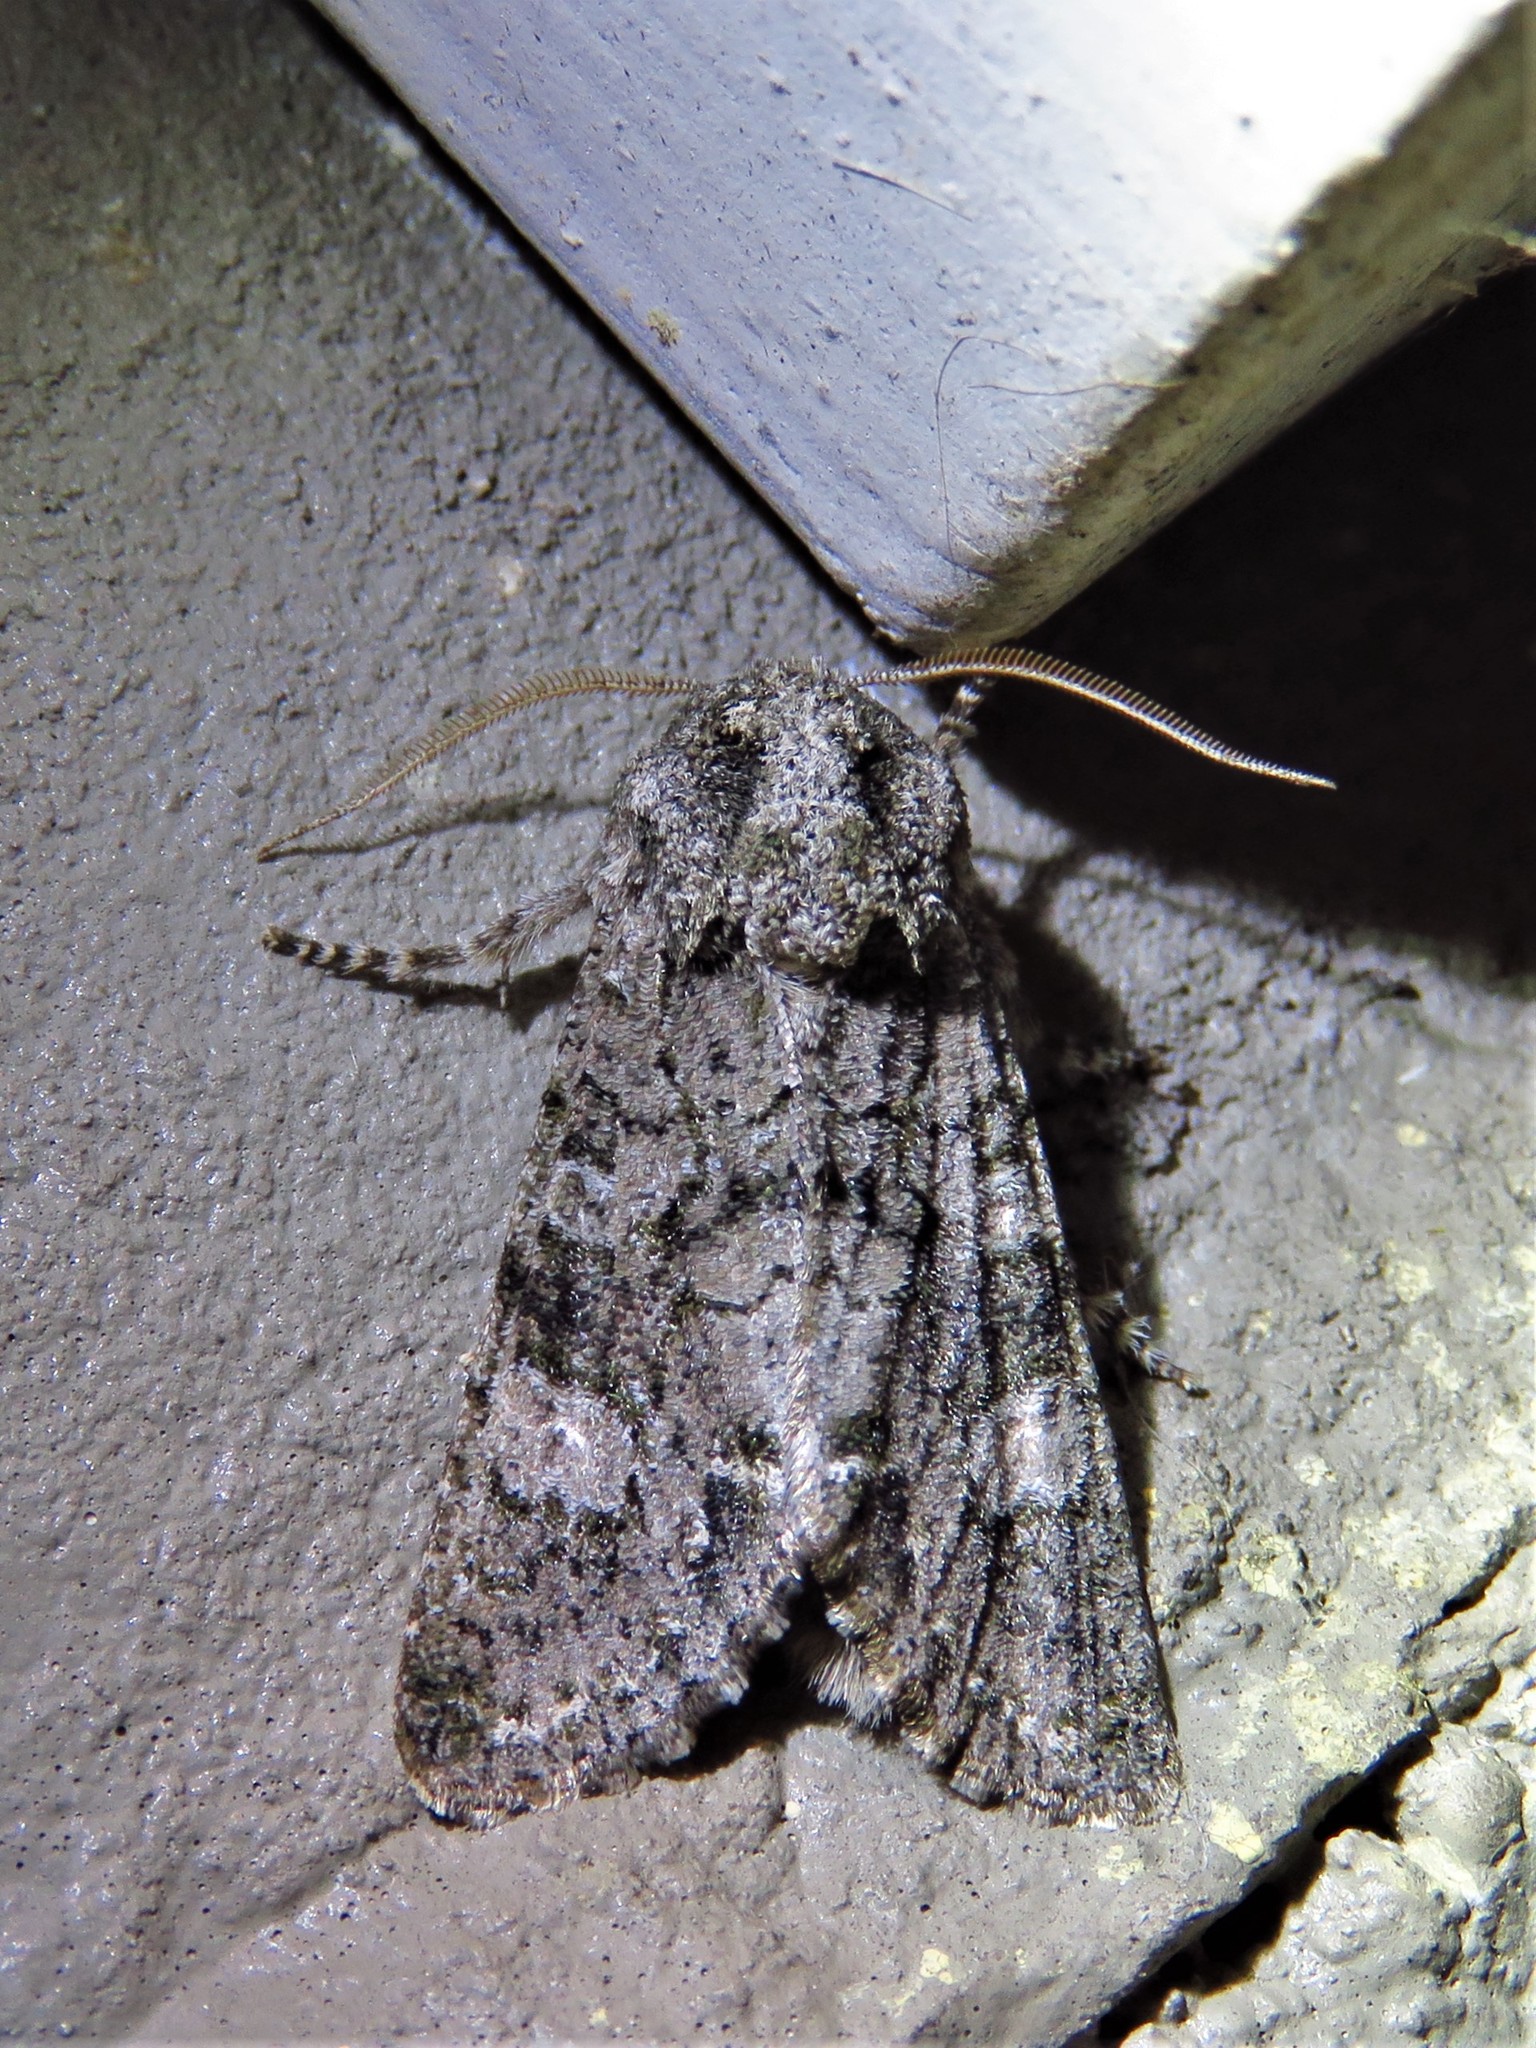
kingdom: Animalia
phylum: Arthropoda
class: Insecta
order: Lepidoptera
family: Noctuidae
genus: Psaphida
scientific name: Psaphida grotei
